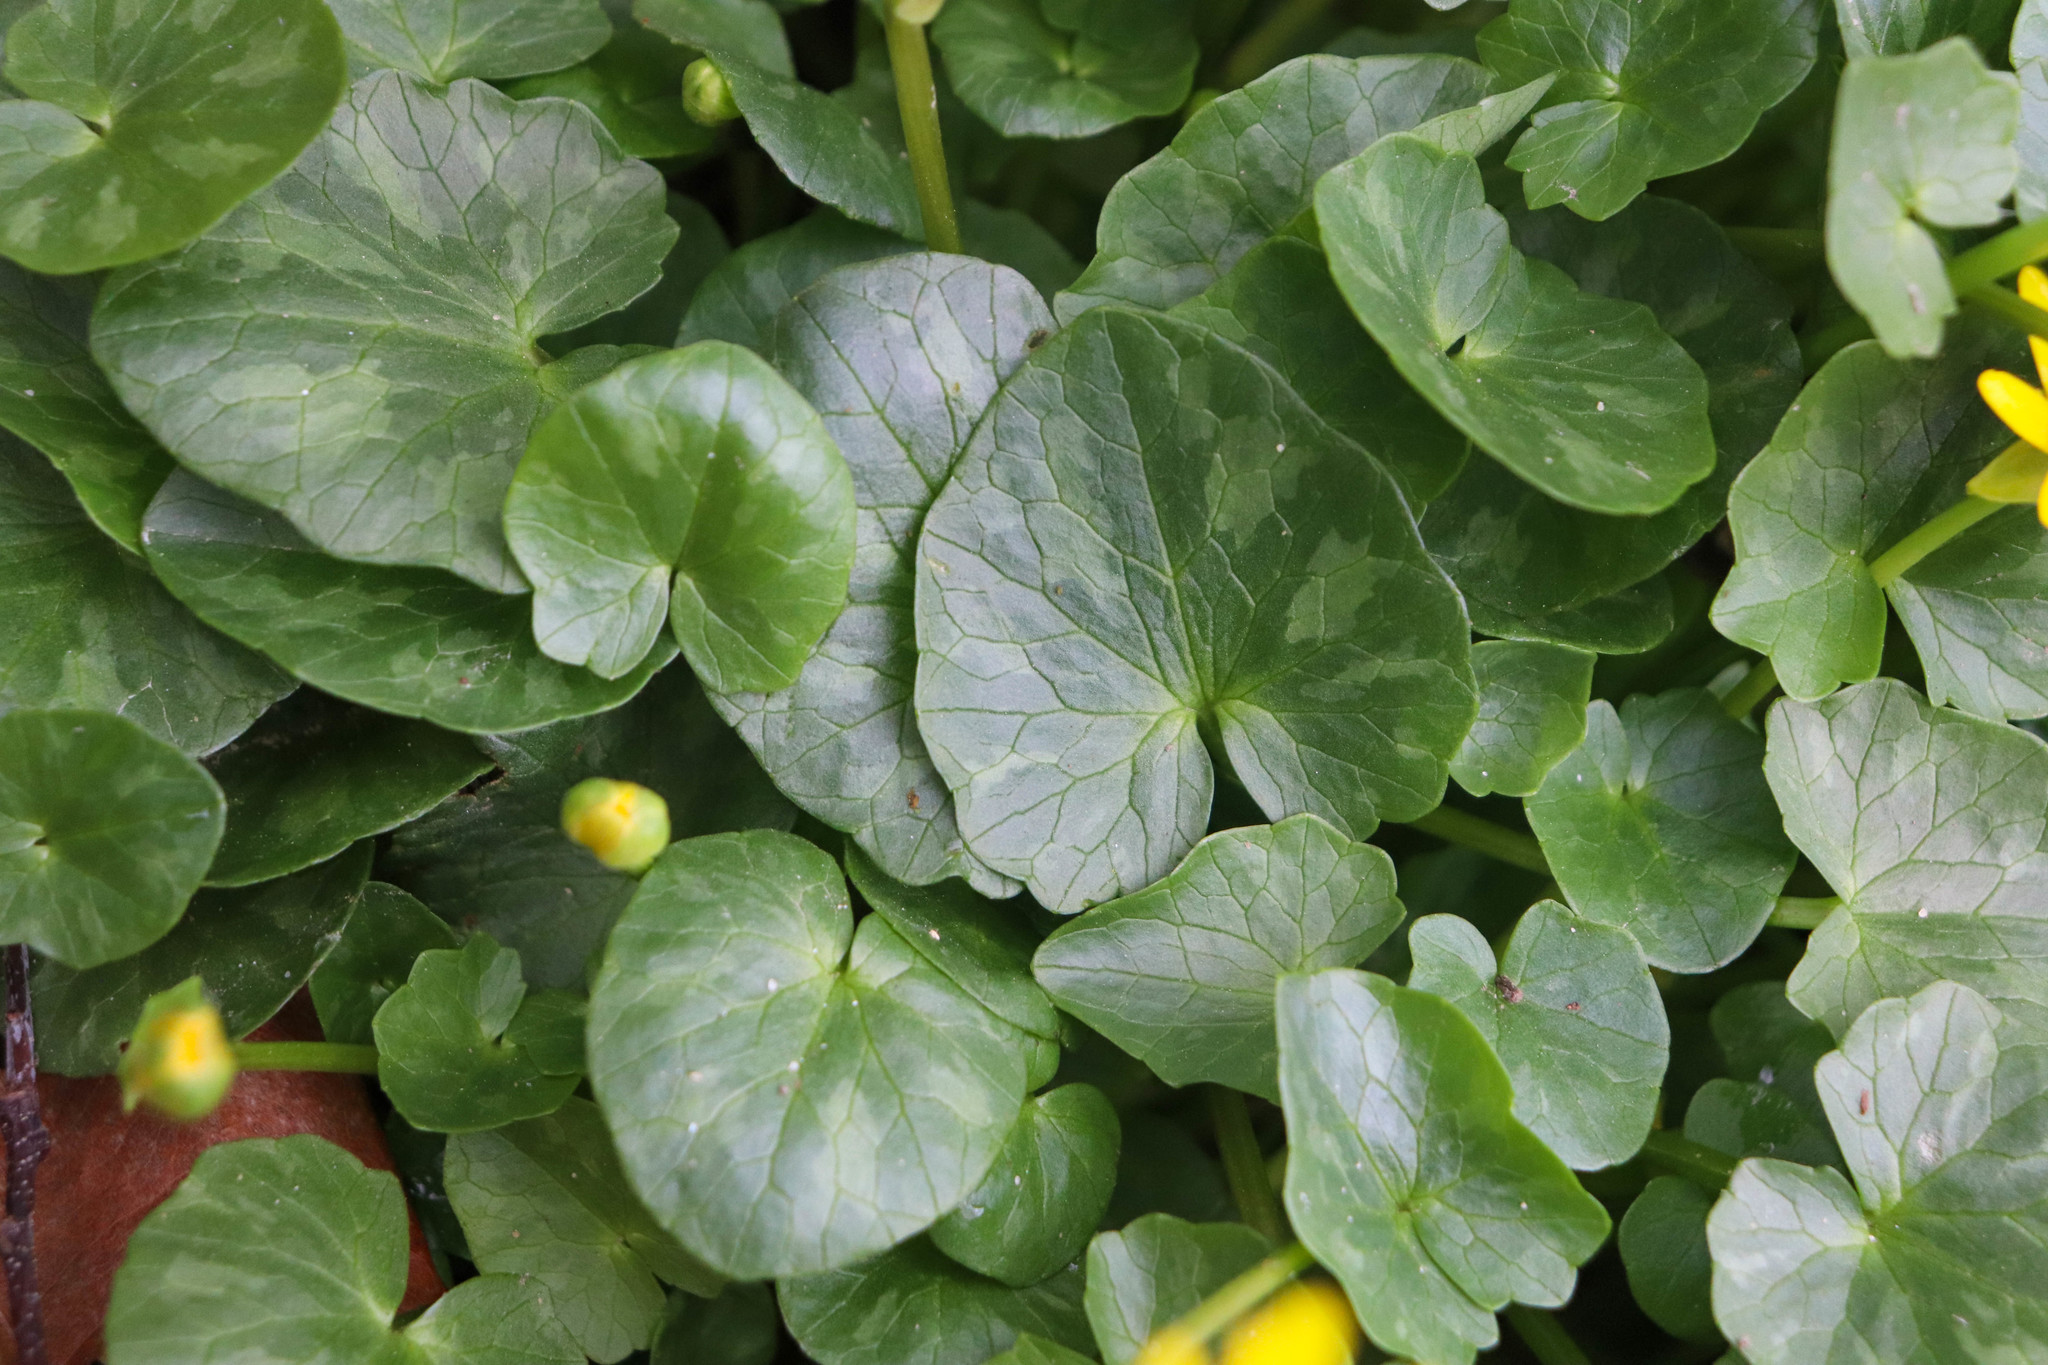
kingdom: Plantae
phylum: Tracheophyta
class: Magnoliopsida
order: Ranunculales
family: Ranunculaceae
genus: Ficaria
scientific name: Ficaria verna
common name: Lesser celandine
